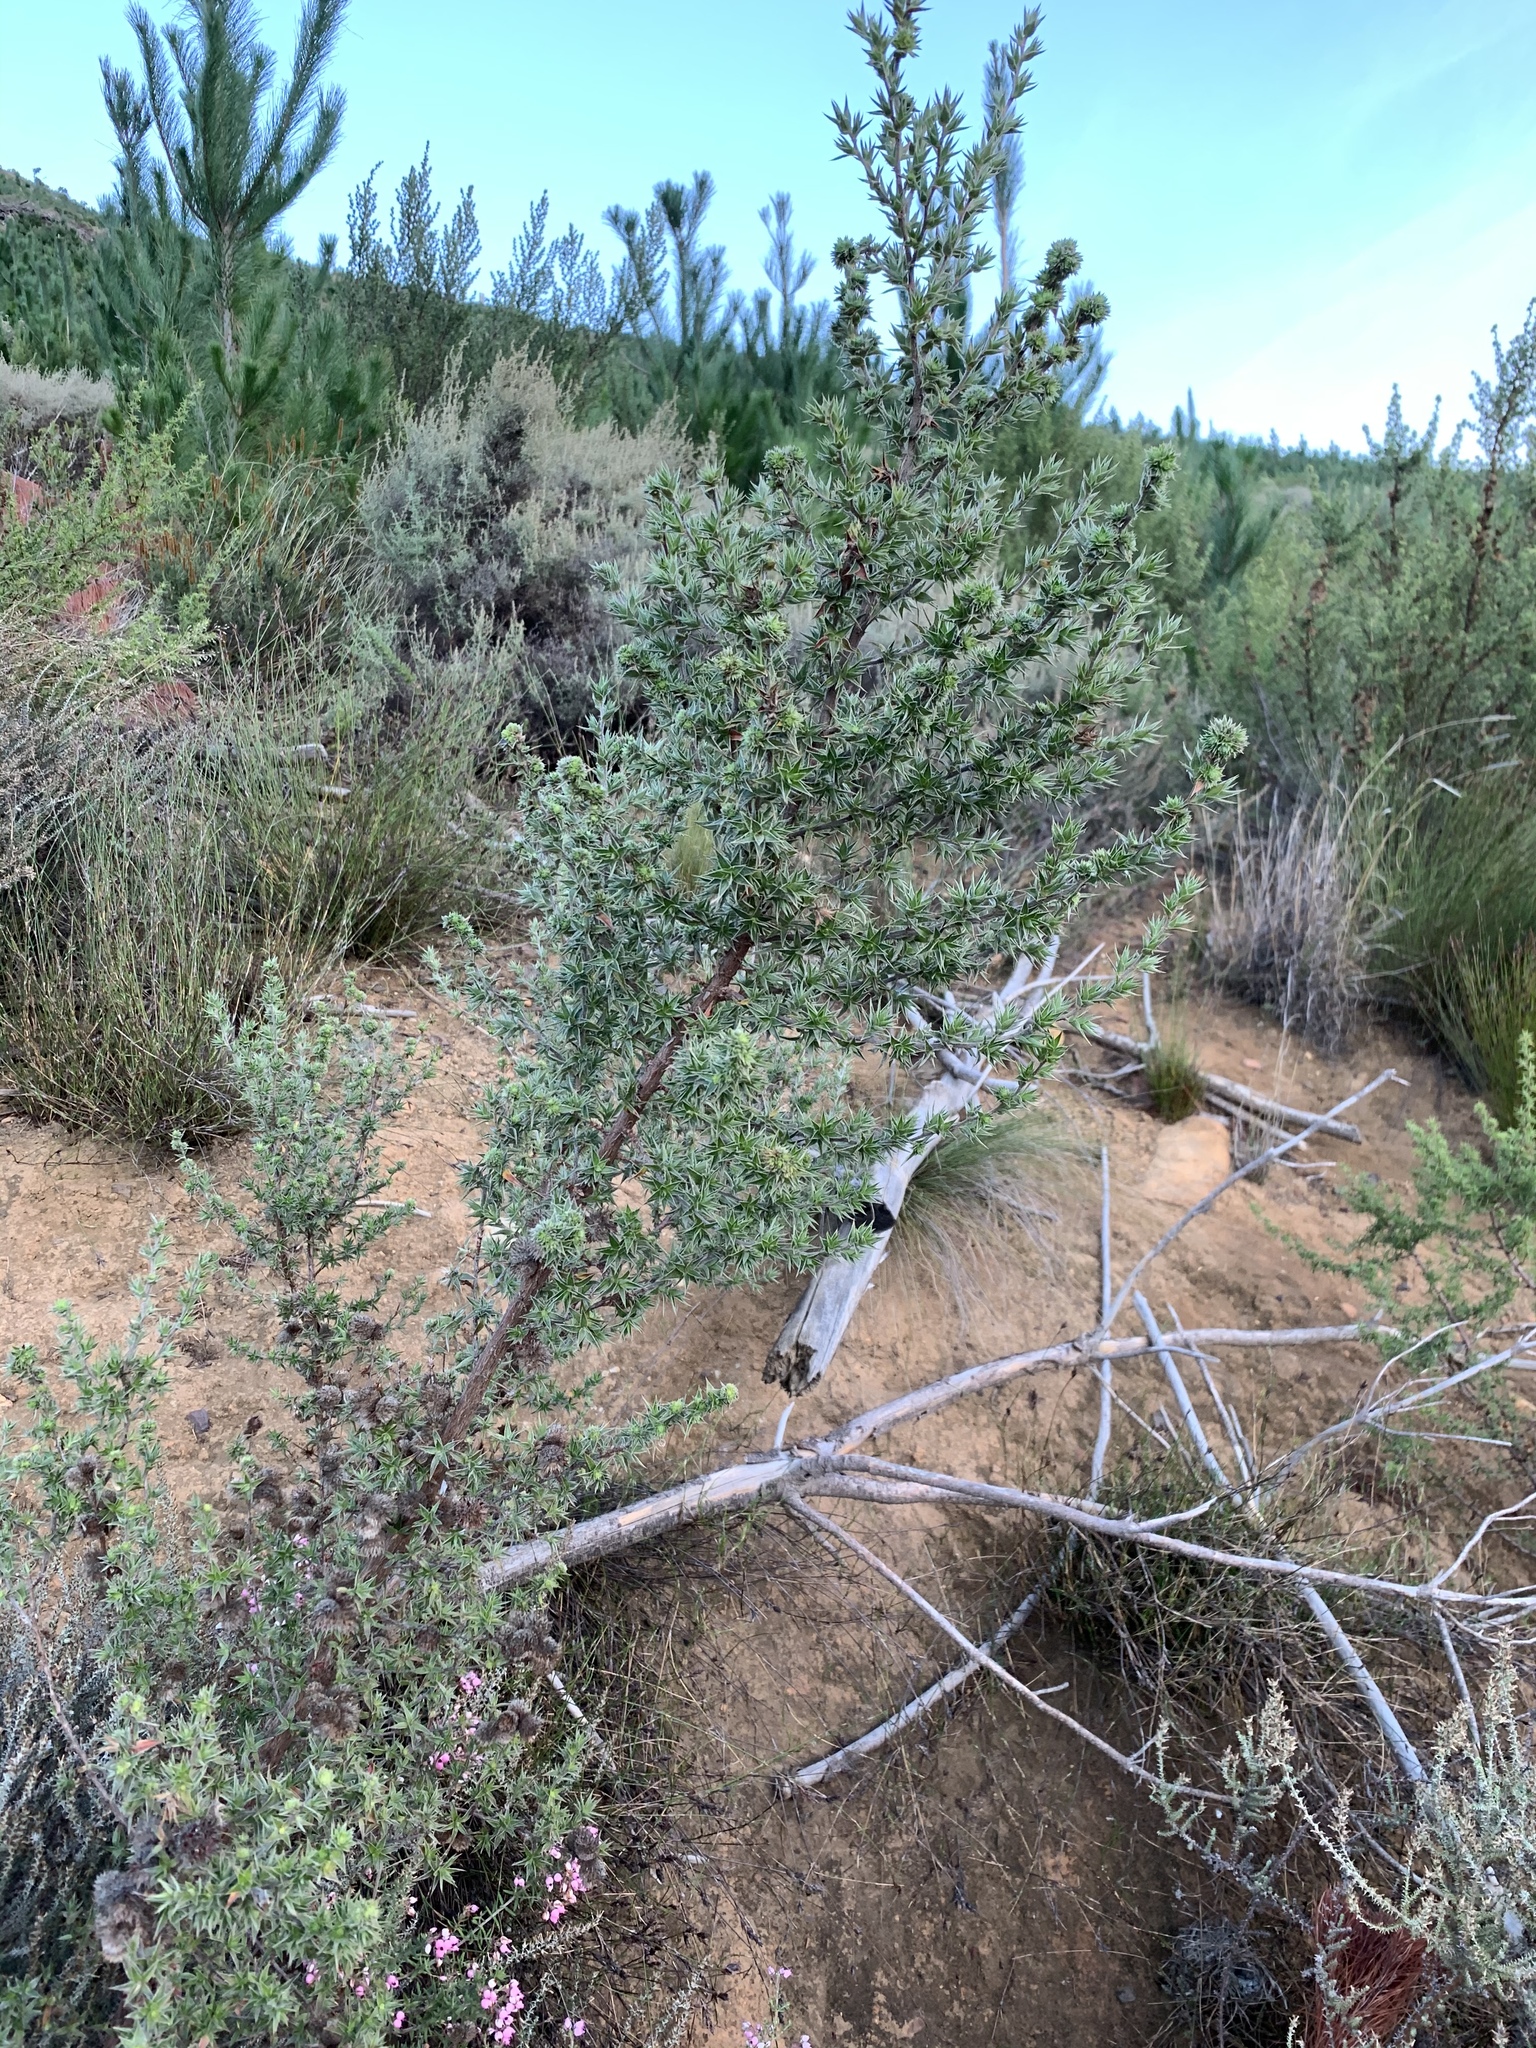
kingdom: Plantae
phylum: Tracheophyta
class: Magnoliopsida
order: Rosales
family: Rosaceae
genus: Cliffortia
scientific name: Cliffortia ruscifolia
